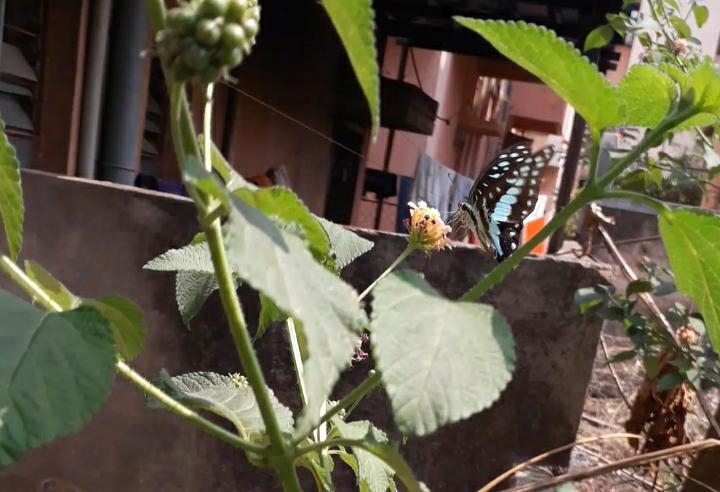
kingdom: Animalia
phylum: Arthropoda
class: Insecta
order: Lepidoptera
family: Papilionidae
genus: Graphium
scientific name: Graphium doson
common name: Common jay
